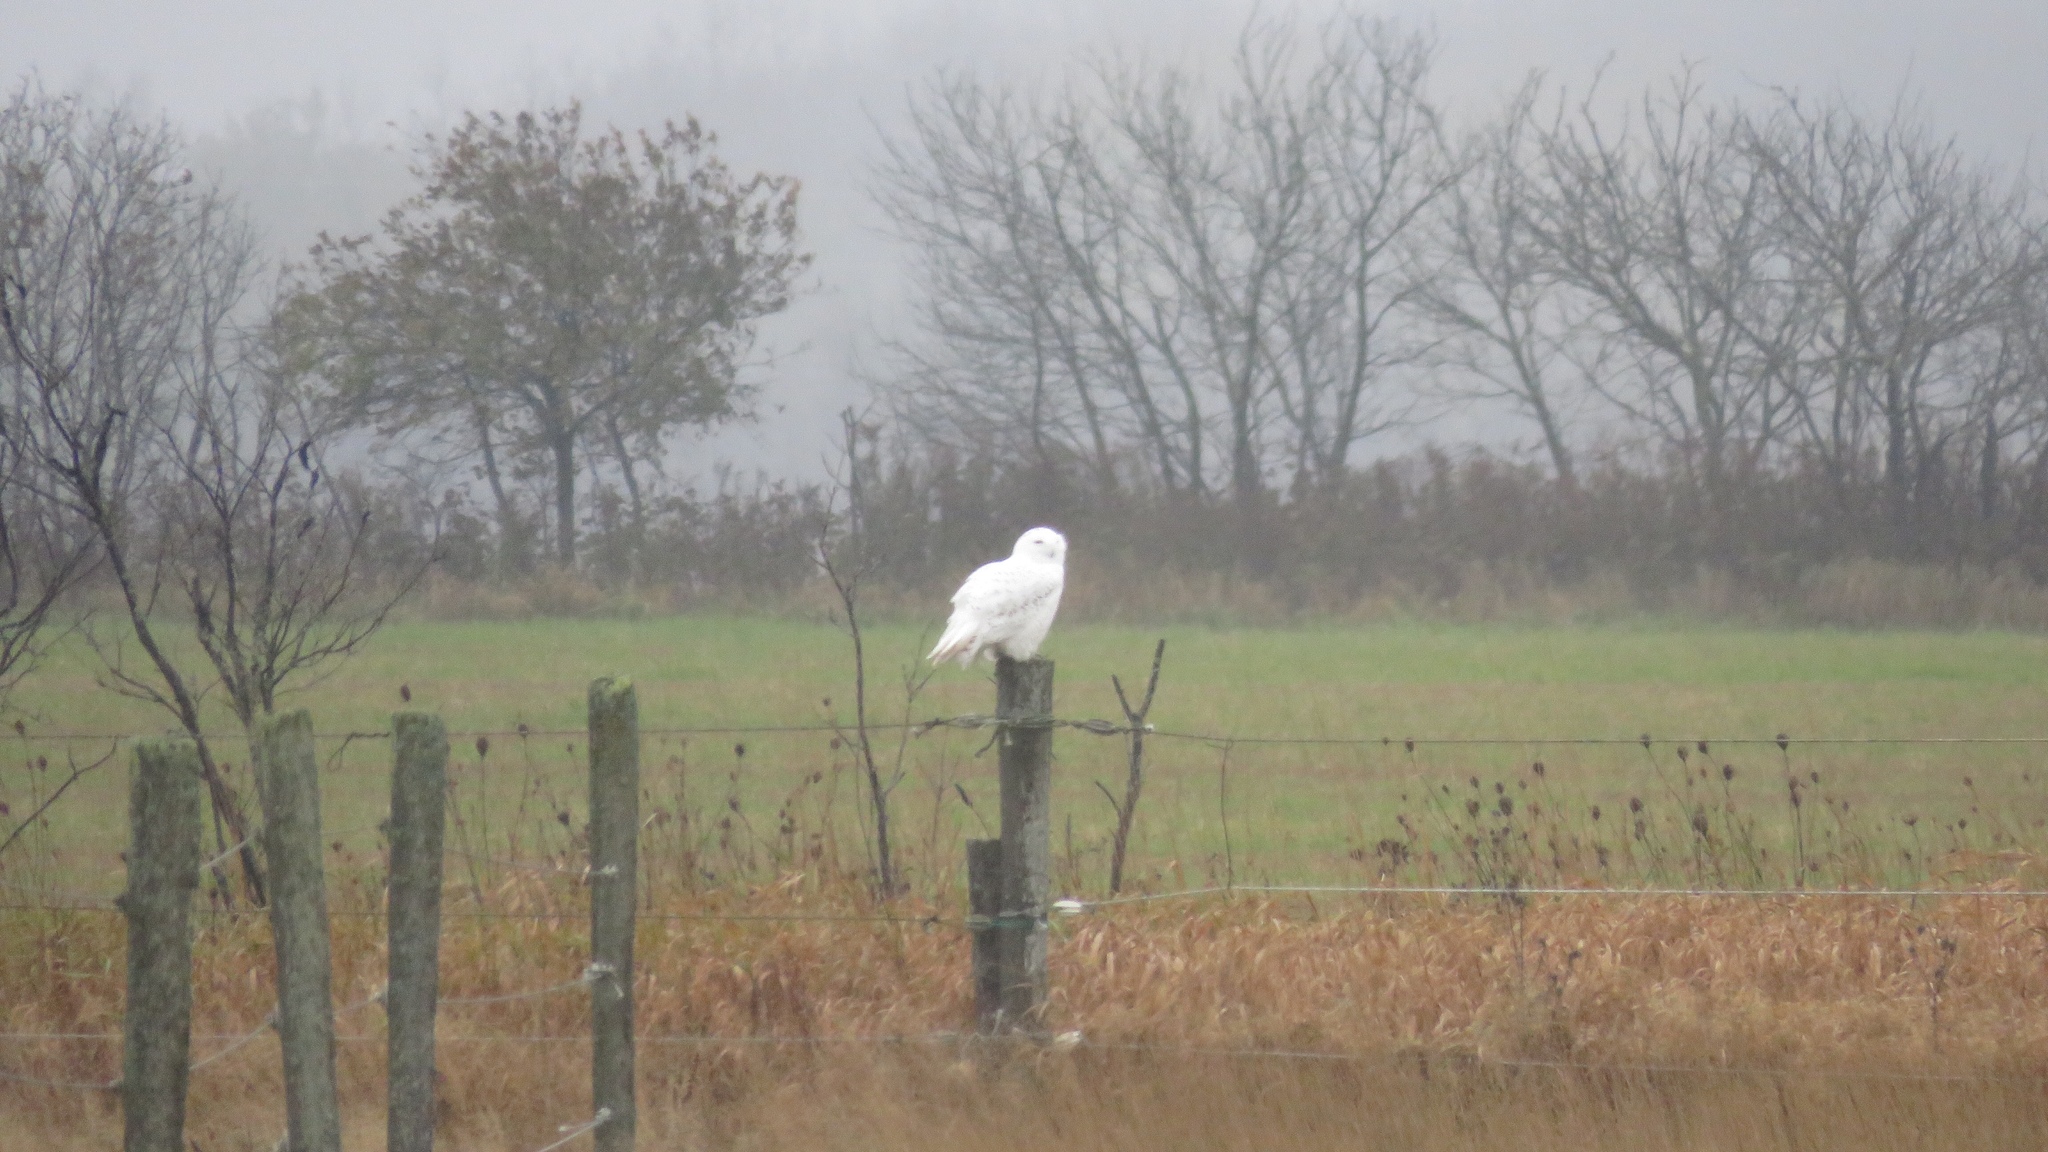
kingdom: Animalia
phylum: Chordata
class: Aves
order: Strigiformes
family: Strigidae
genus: Bubo
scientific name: Bubo scandiacus
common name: Snowy owl
